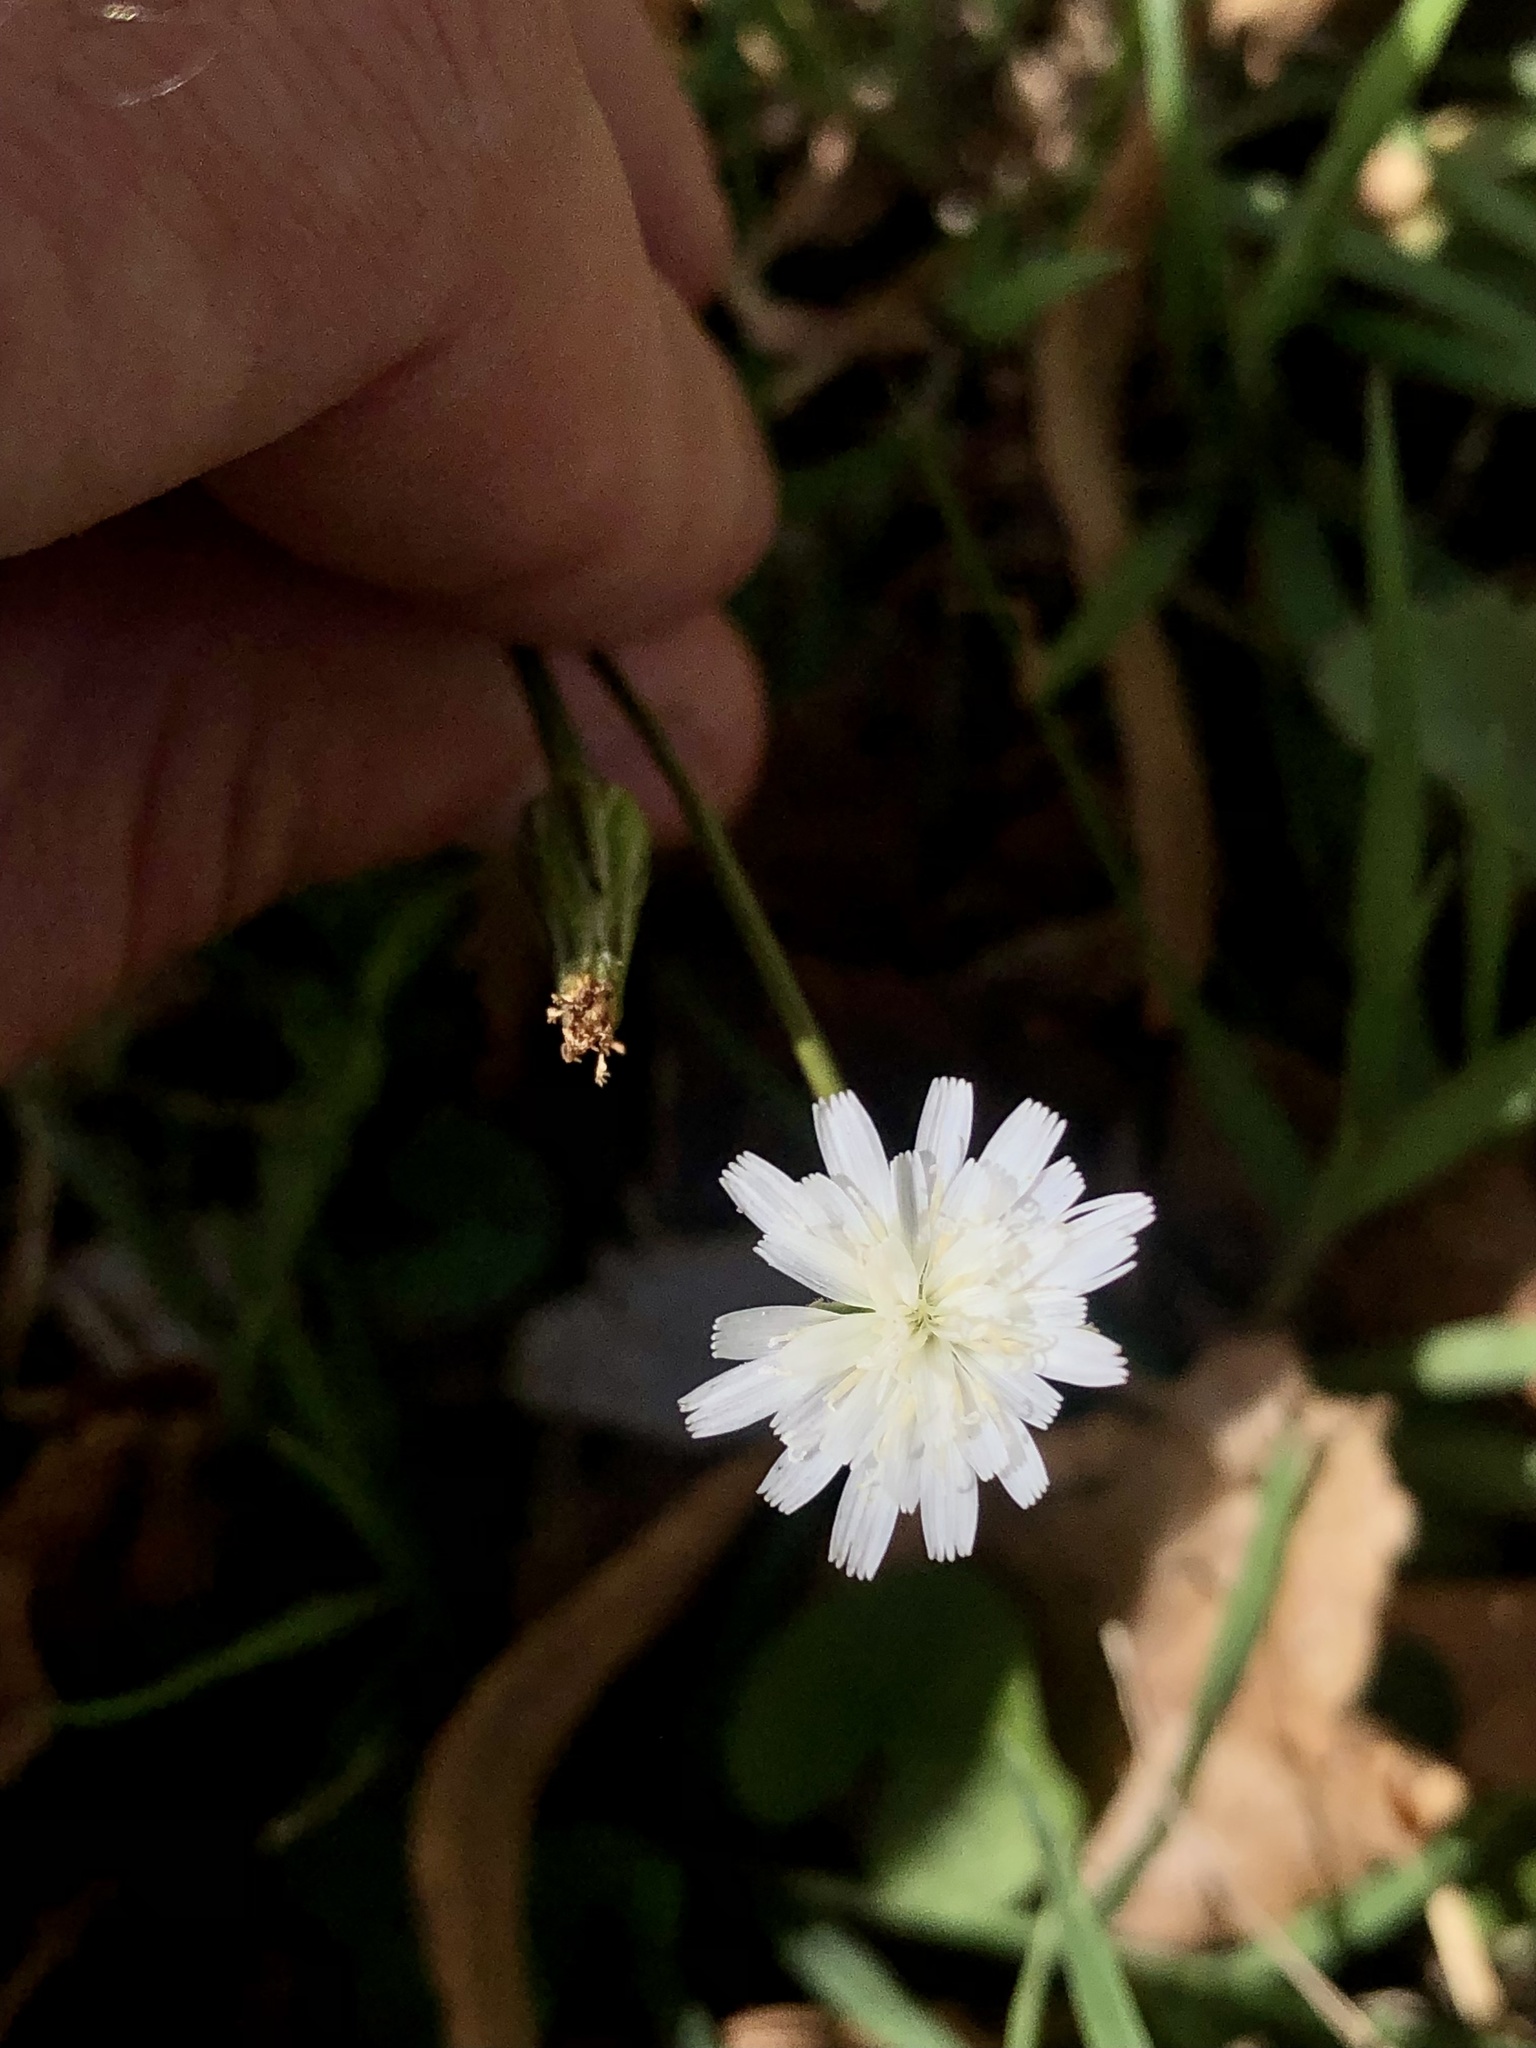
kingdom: Plantae
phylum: Tracheophyta
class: Magnoliopsida
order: Asterales
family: Asteraceae
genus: Hypochaeris
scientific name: Hypochaeris albiflora
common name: White flatweed
